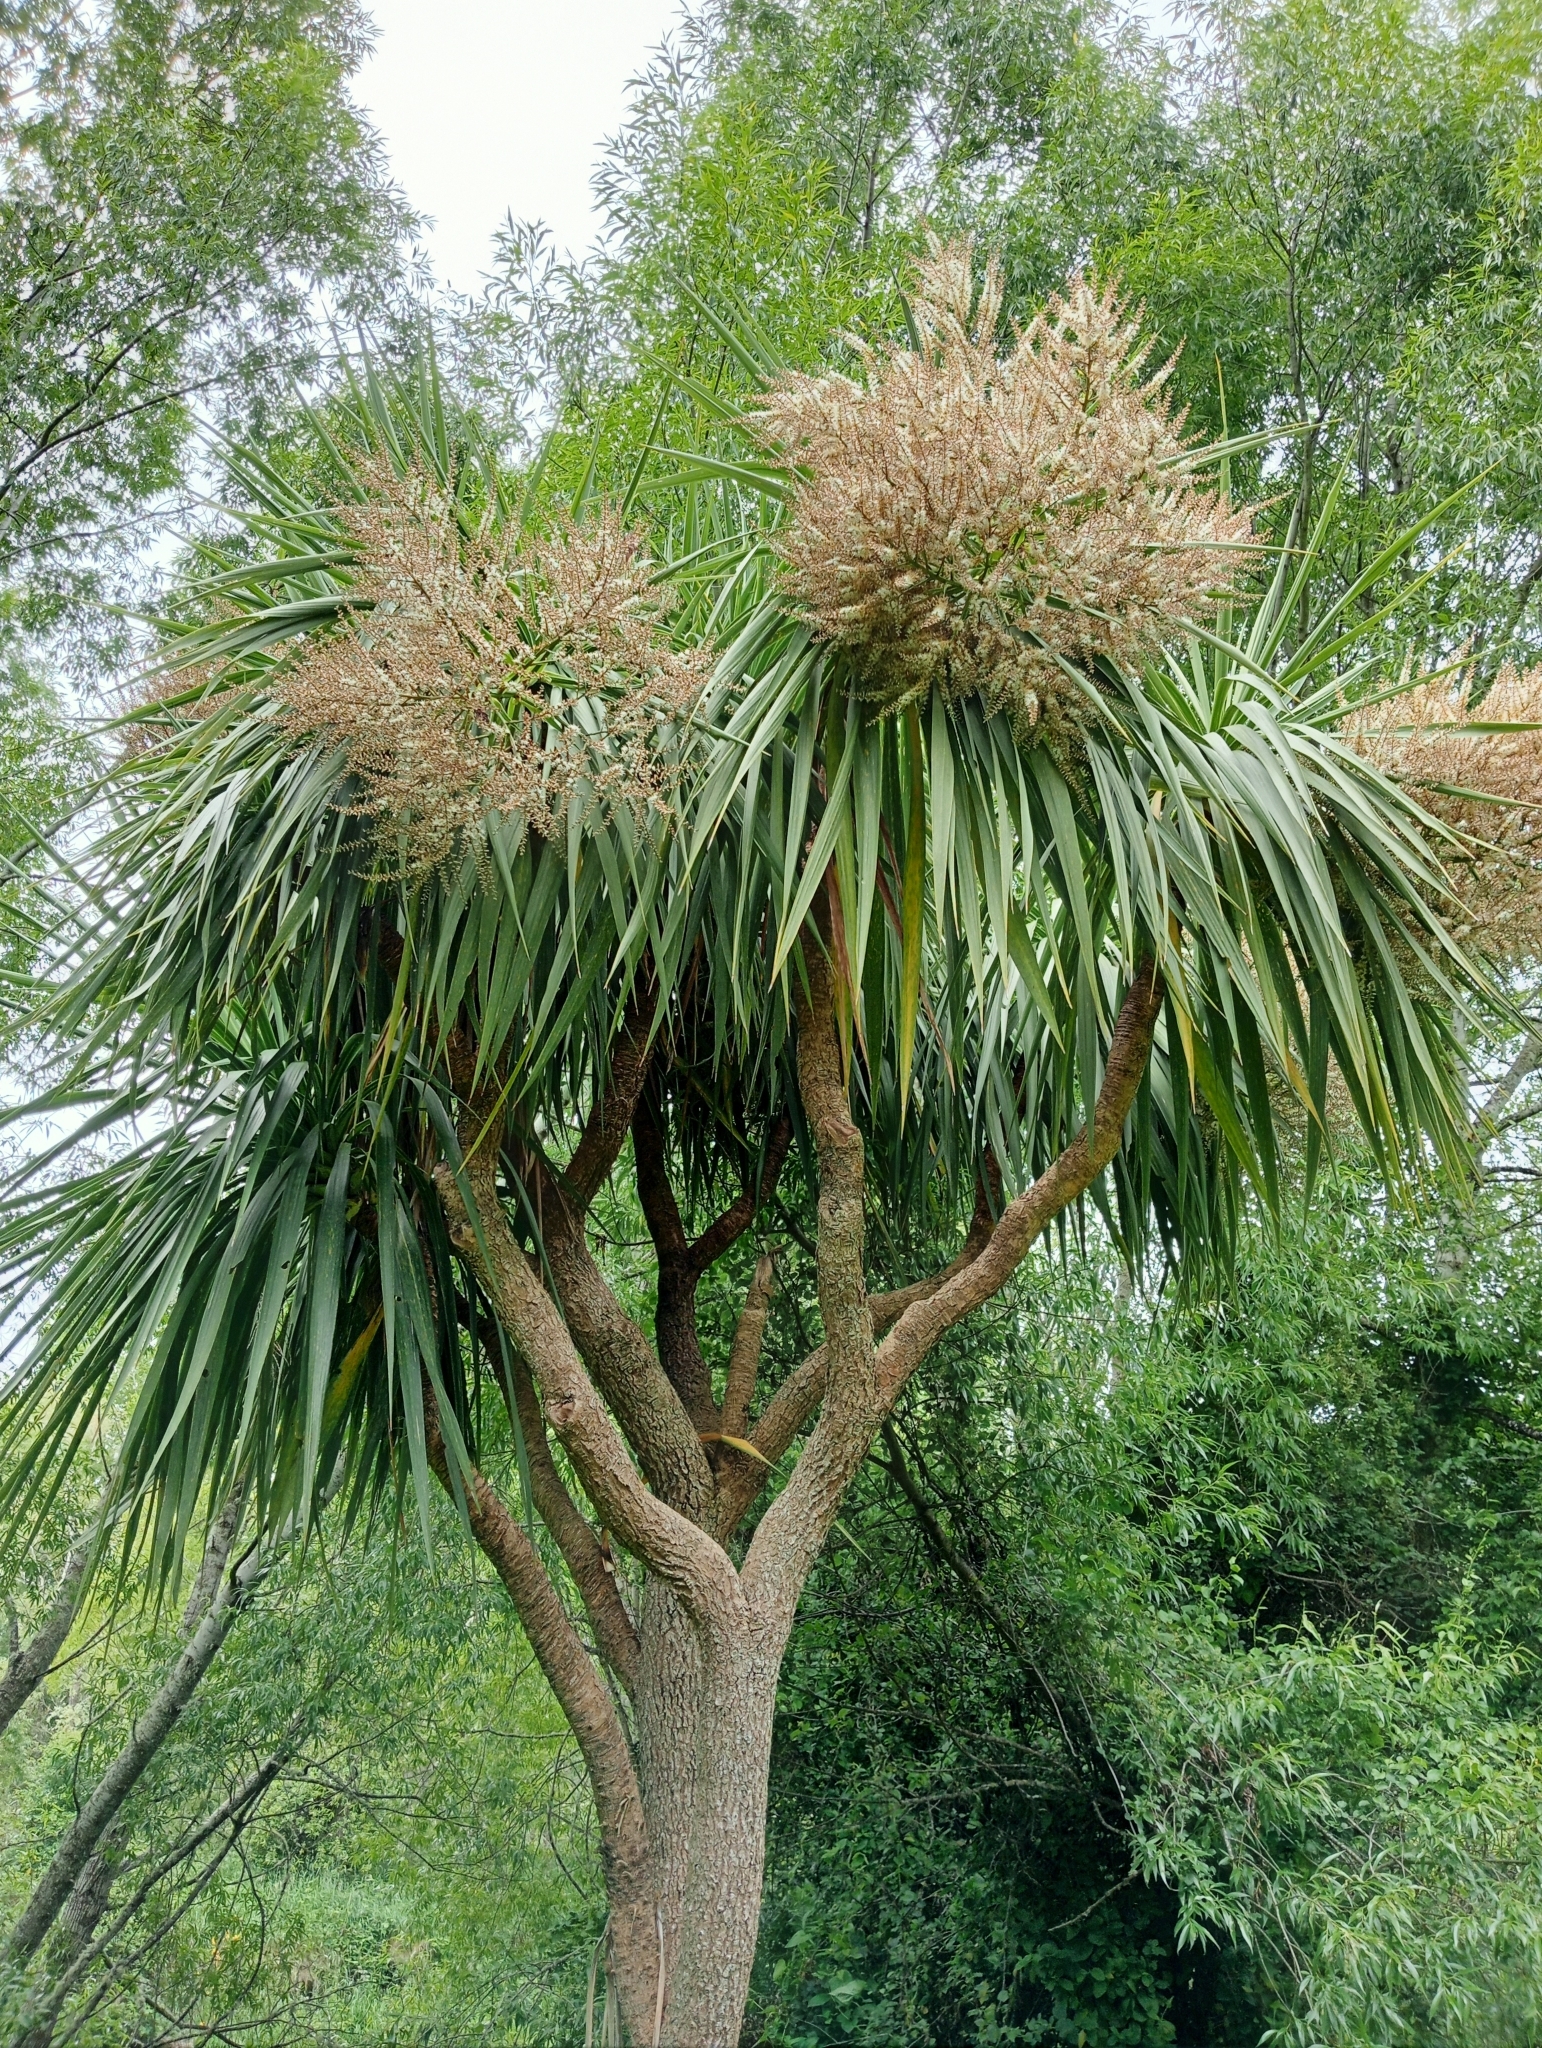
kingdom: Plantae
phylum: Tracheophyta
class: Liliopsida
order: Asparagales
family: Asparagaceae
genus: Cordyline
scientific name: Cordyline australis
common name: Cabbage-palm
